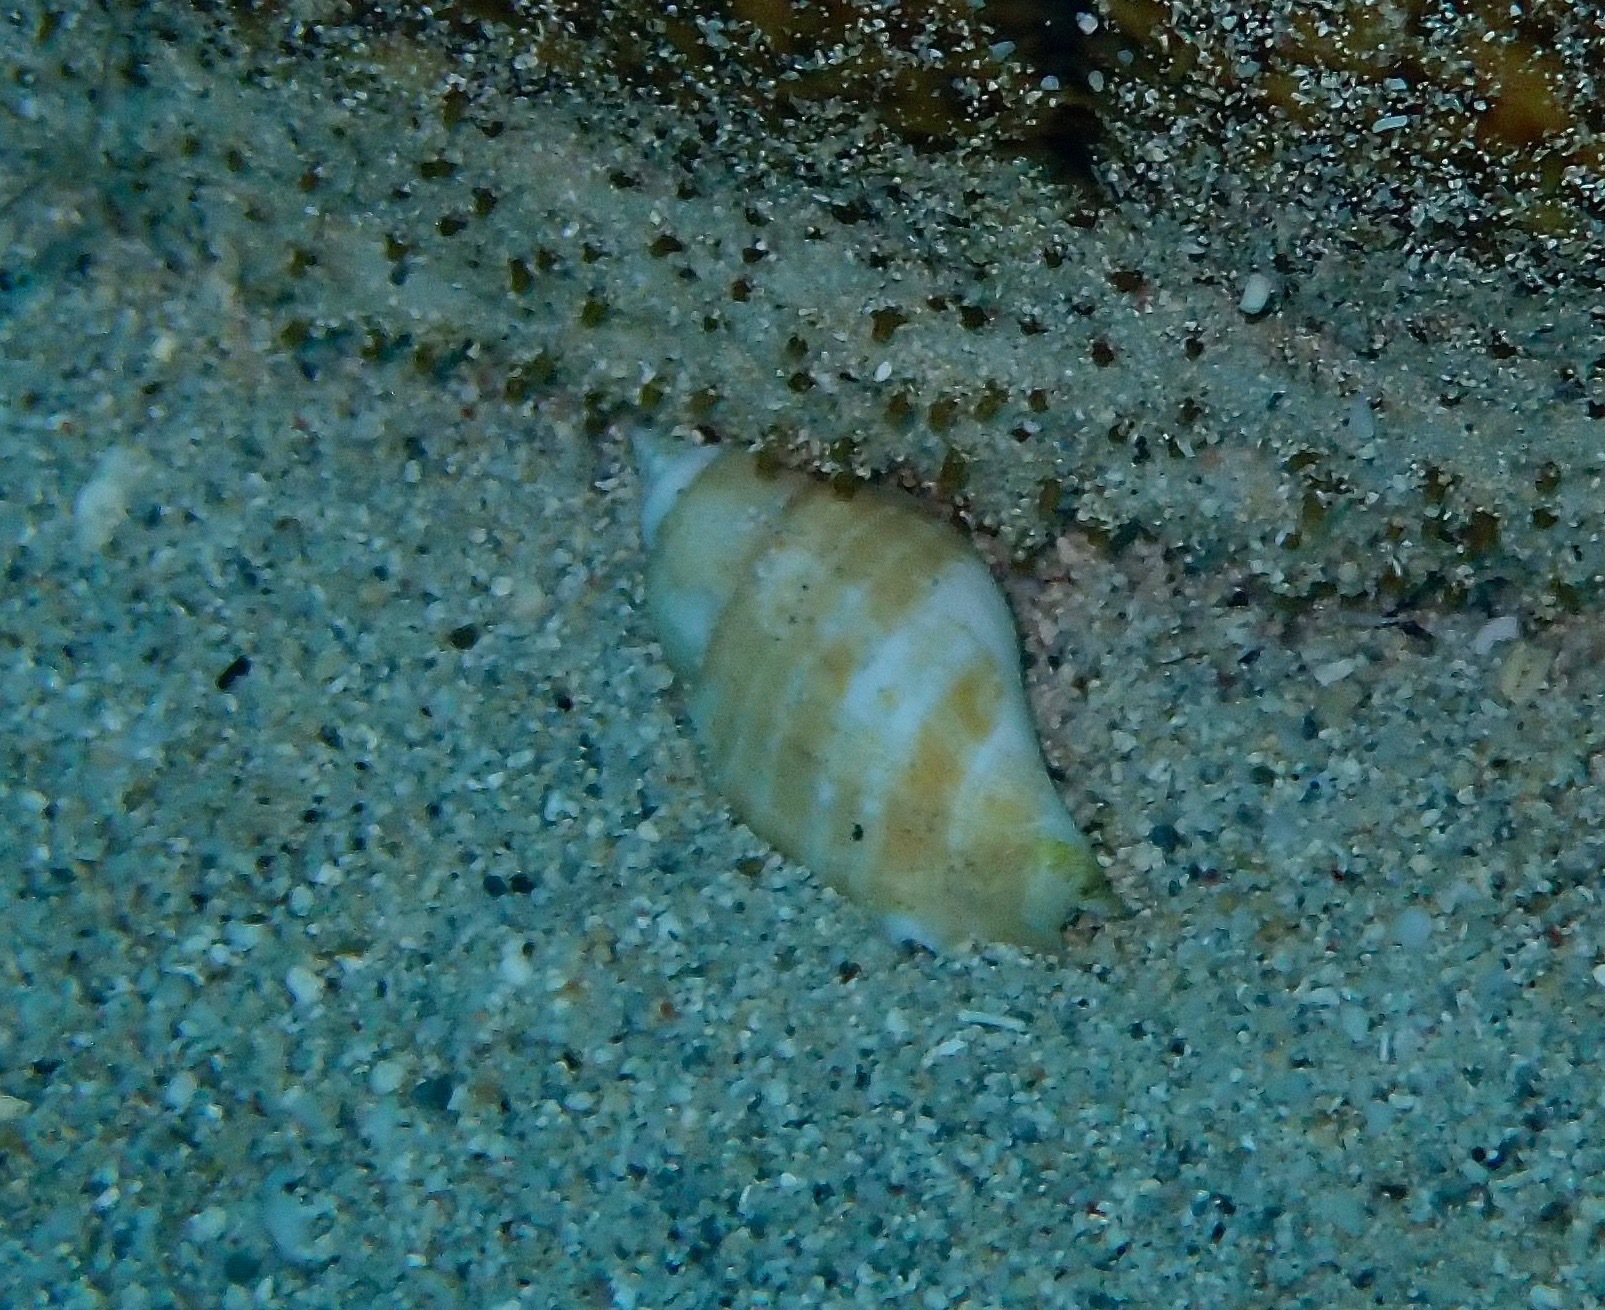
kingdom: Animalia
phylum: Mollusca
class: Gastropoda
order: Littorinimorpha
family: Strombidae
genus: Gibberulus
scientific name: Gibberulus gibberulus
